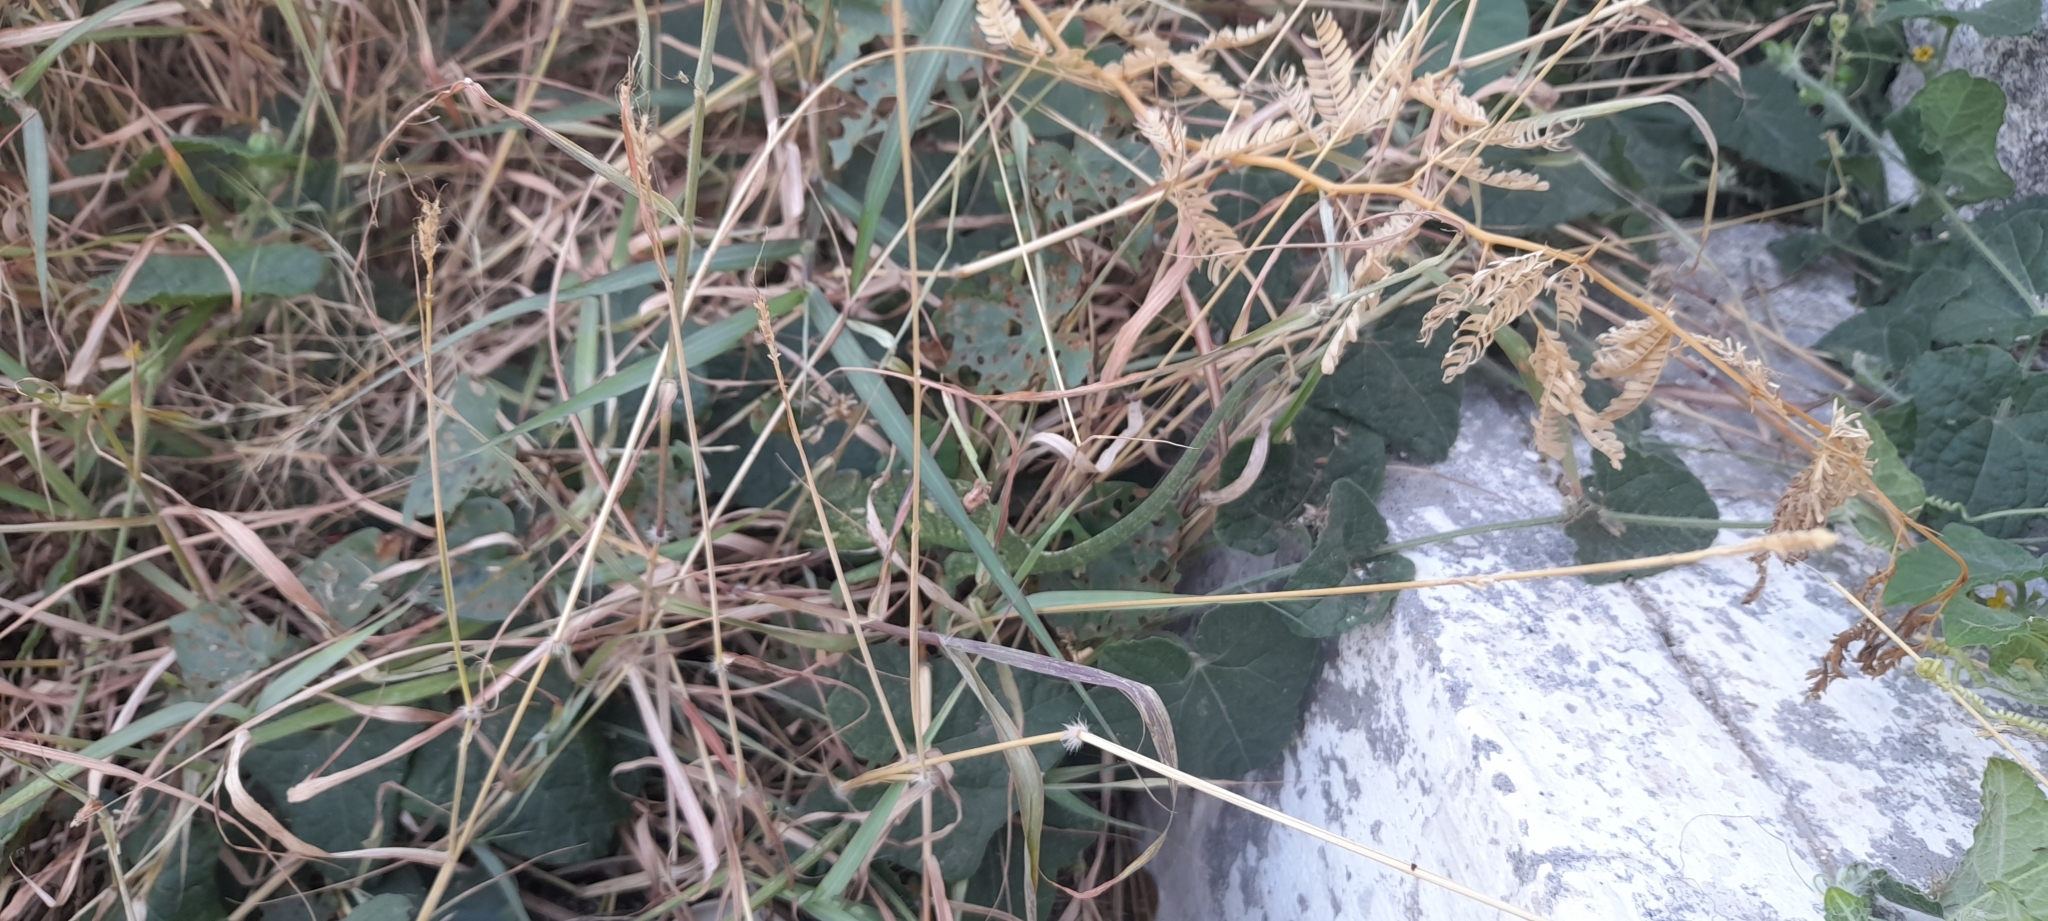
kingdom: Animalia
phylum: Chordata
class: Squamata
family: Chamaeleonidae
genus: Chamaeleo
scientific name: Chamaeleo zeylanicus
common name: Indian chameleon
